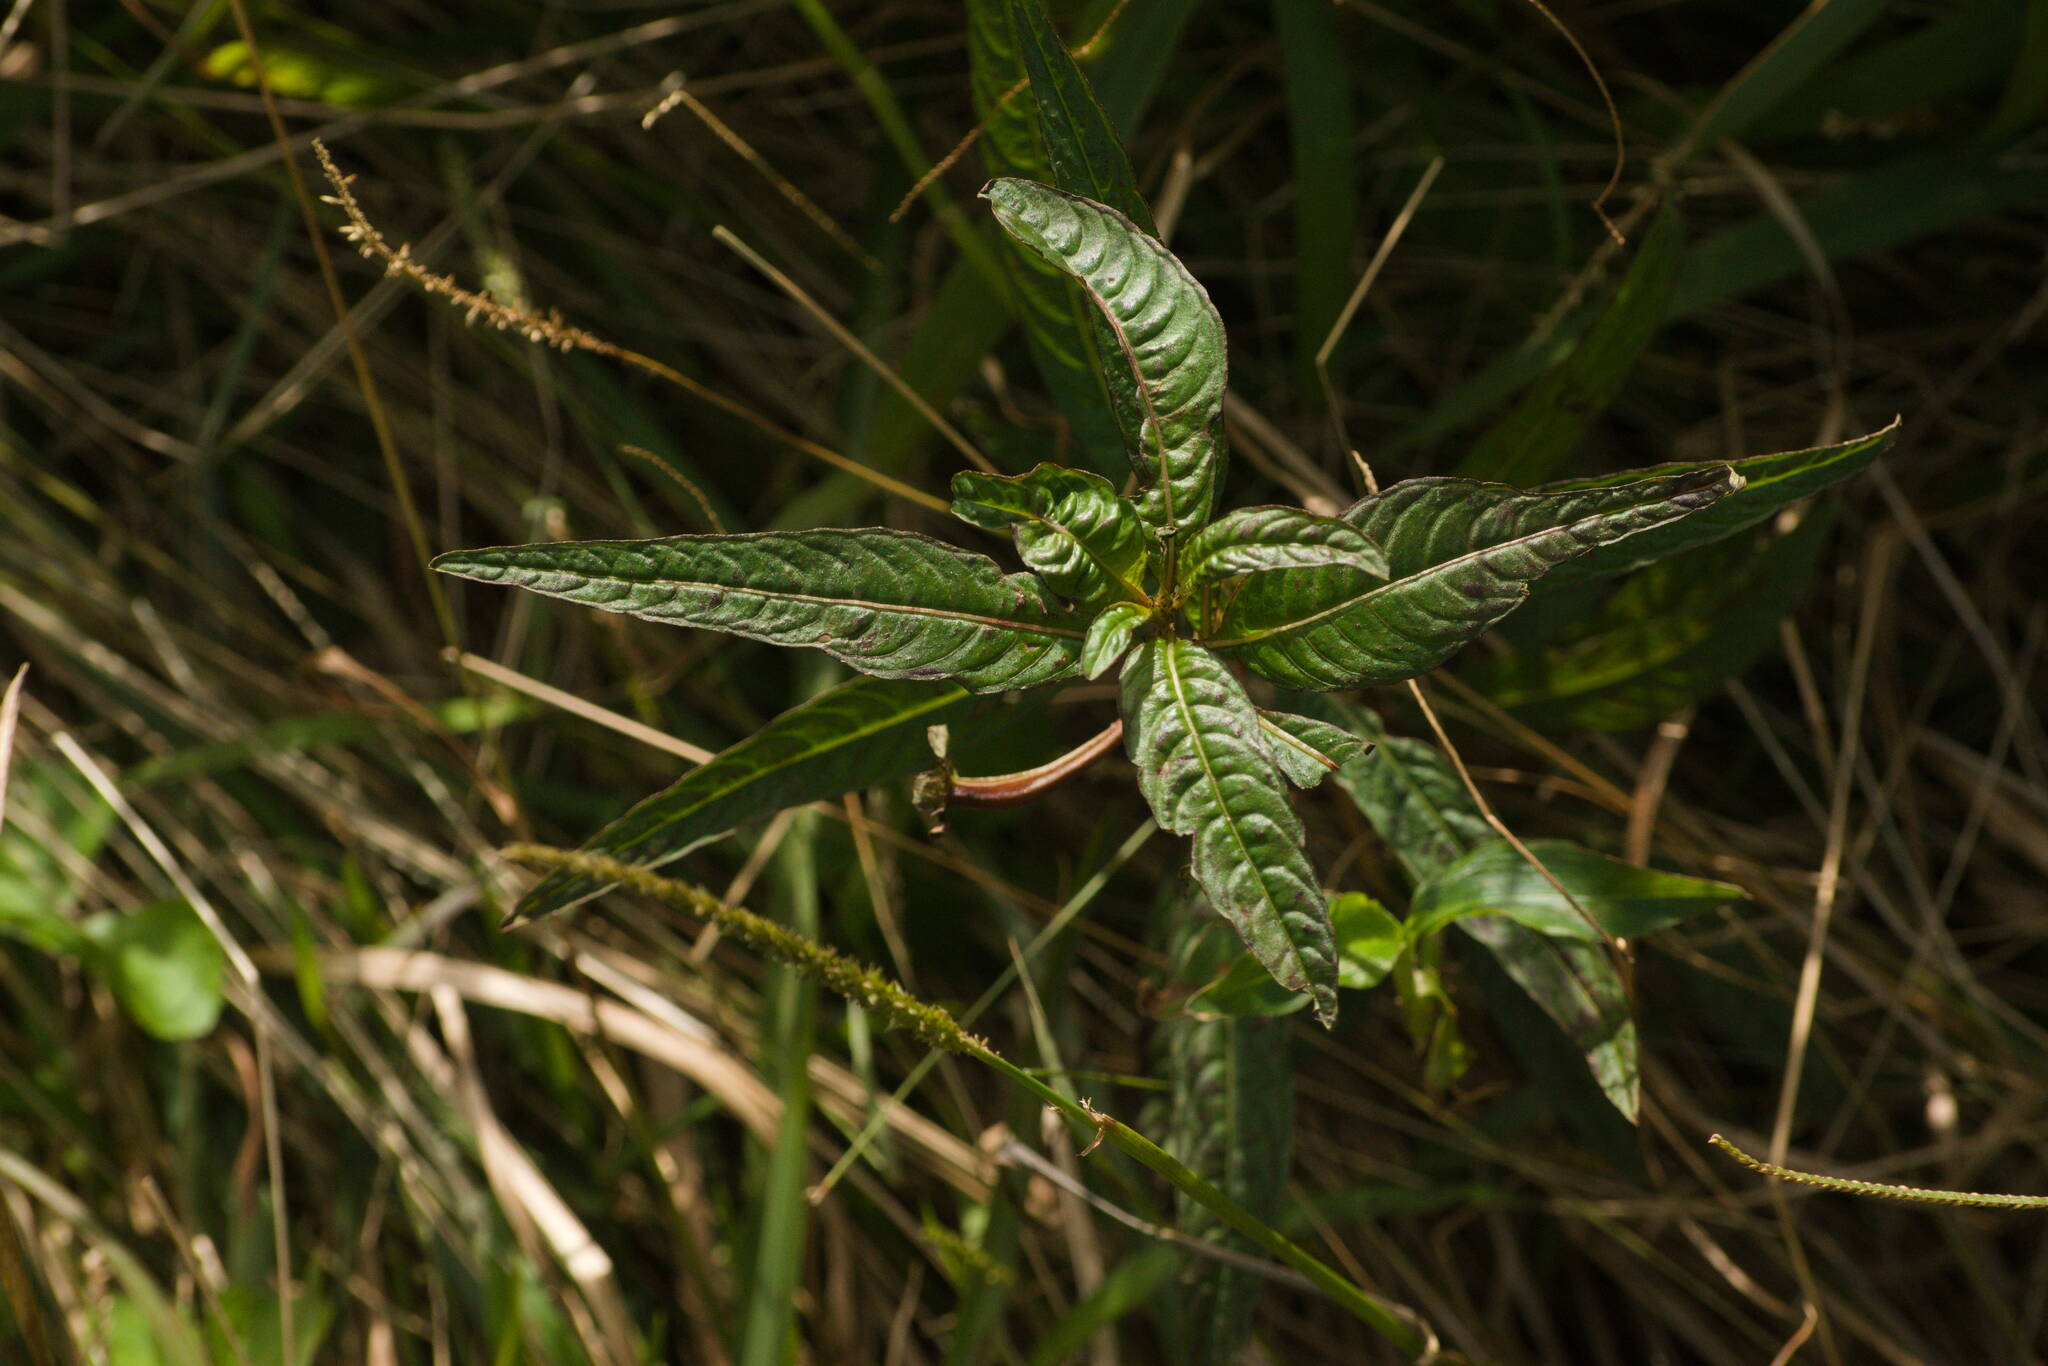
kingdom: Plantae
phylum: Tracheophyta
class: Magnoliopsida
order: Myrtales
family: Onagraceae
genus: Ludwigia
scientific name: Ludwigia octovalvis
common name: Water-primrose
